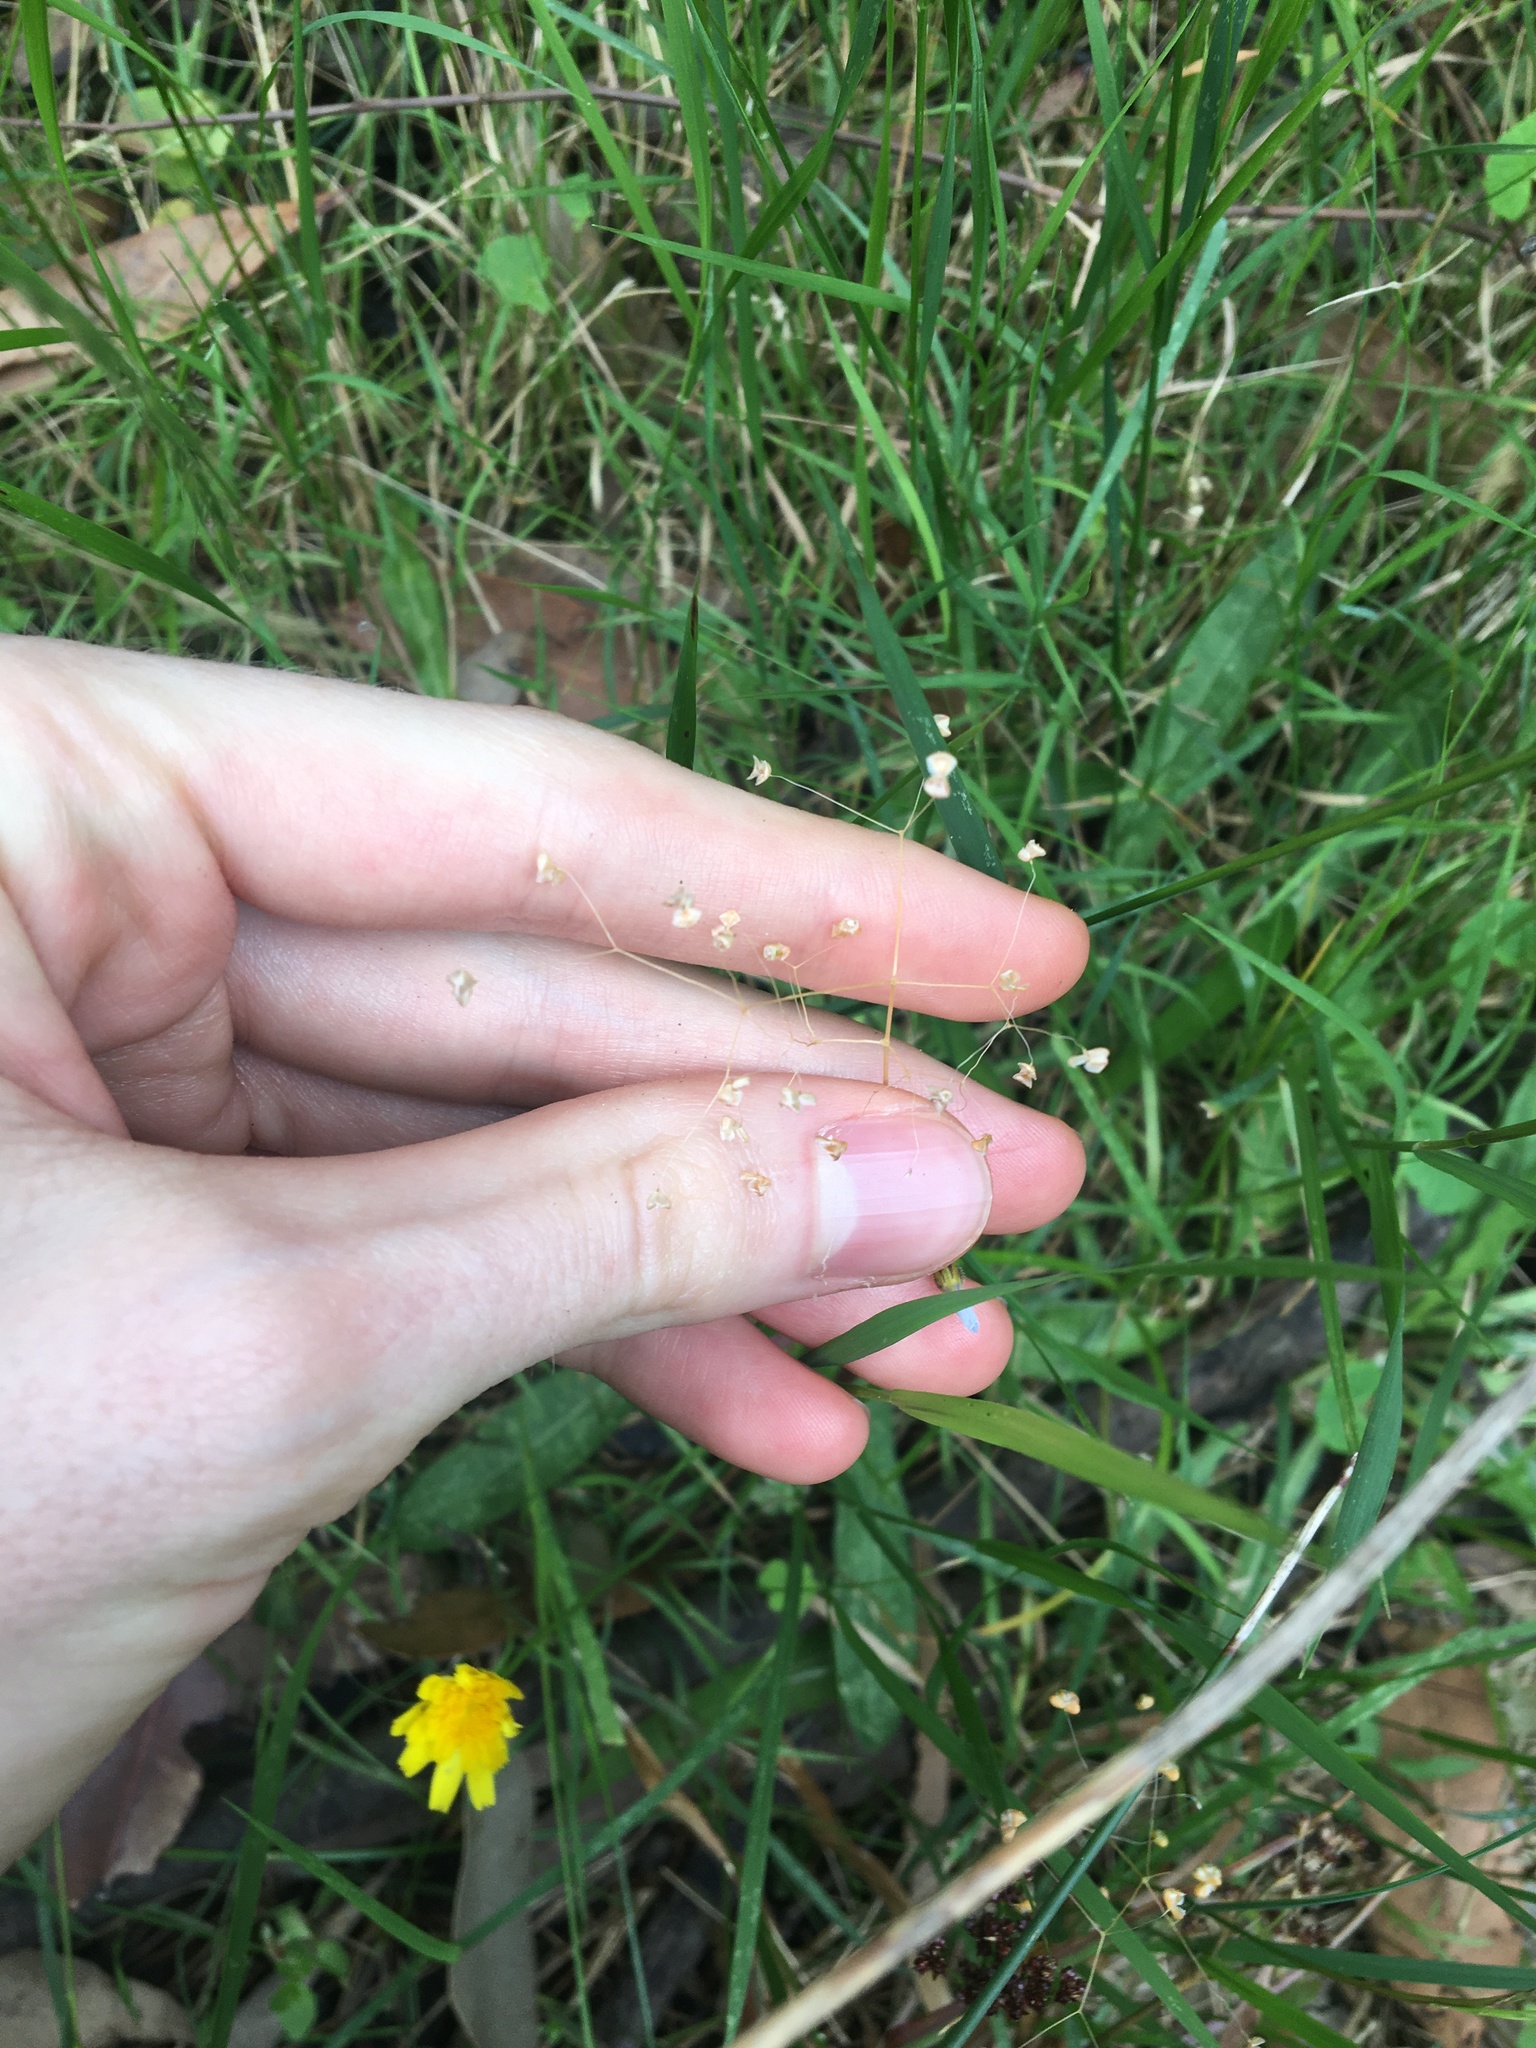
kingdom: Plantae
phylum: Tracheophyta
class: Liliopsida
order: Poales
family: Poaceae
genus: Briza
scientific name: Briza minor
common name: Lesser quaking-grass
